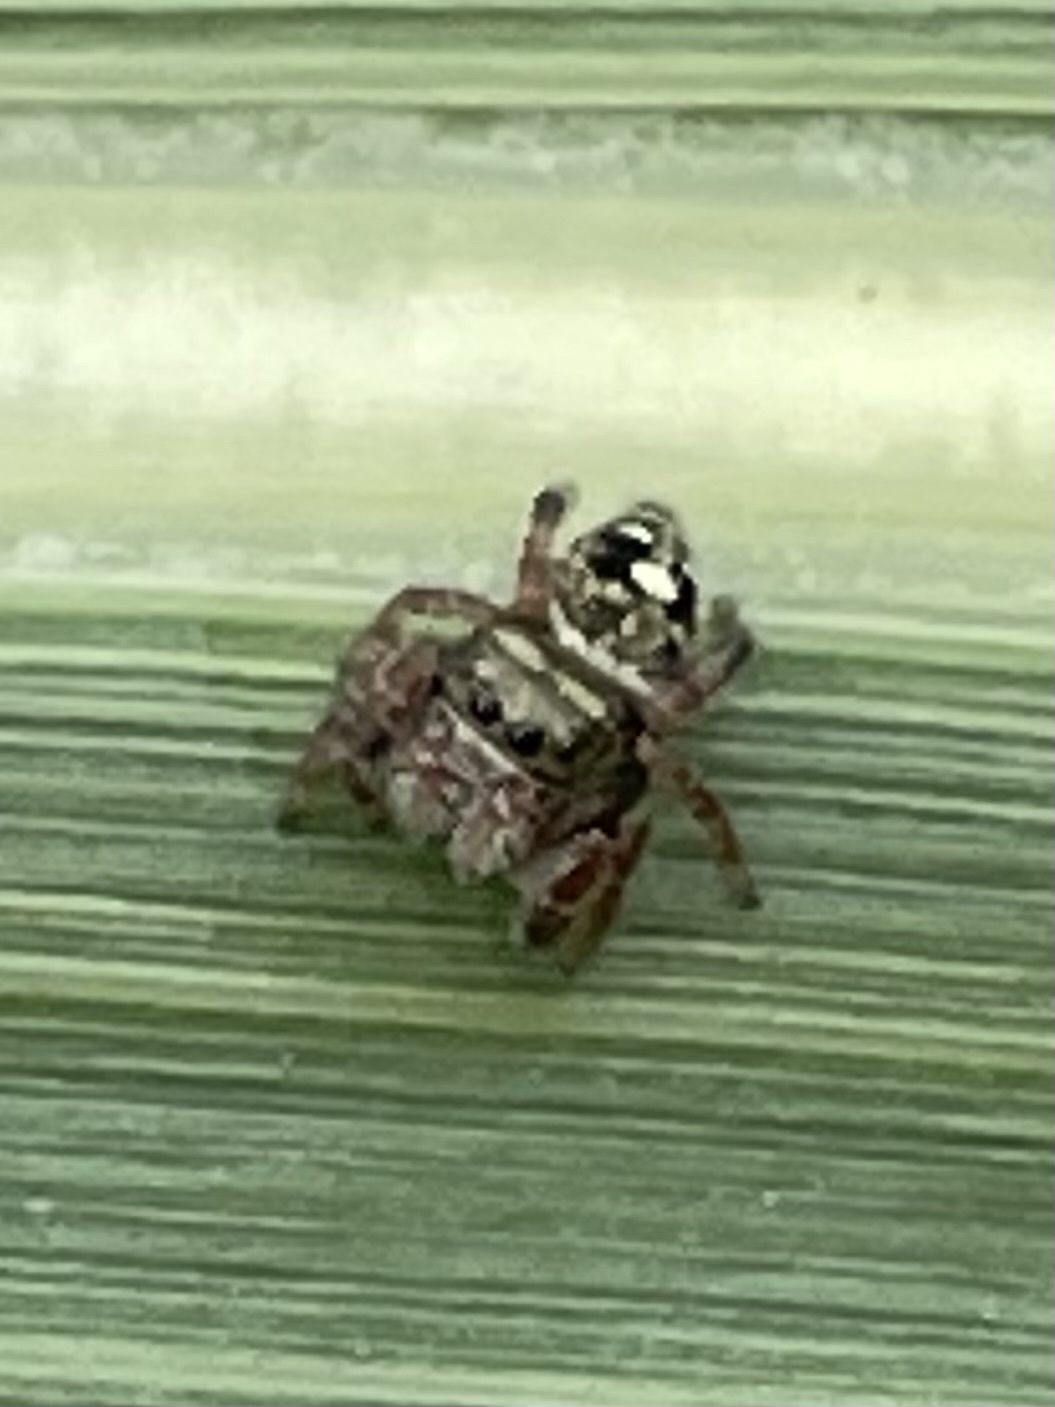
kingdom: Animalia
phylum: Arthropoda
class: Arachnida
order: Araneae
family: Salticidae
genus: Phidippus
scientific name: Phidippus audax
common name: Bold jumper
